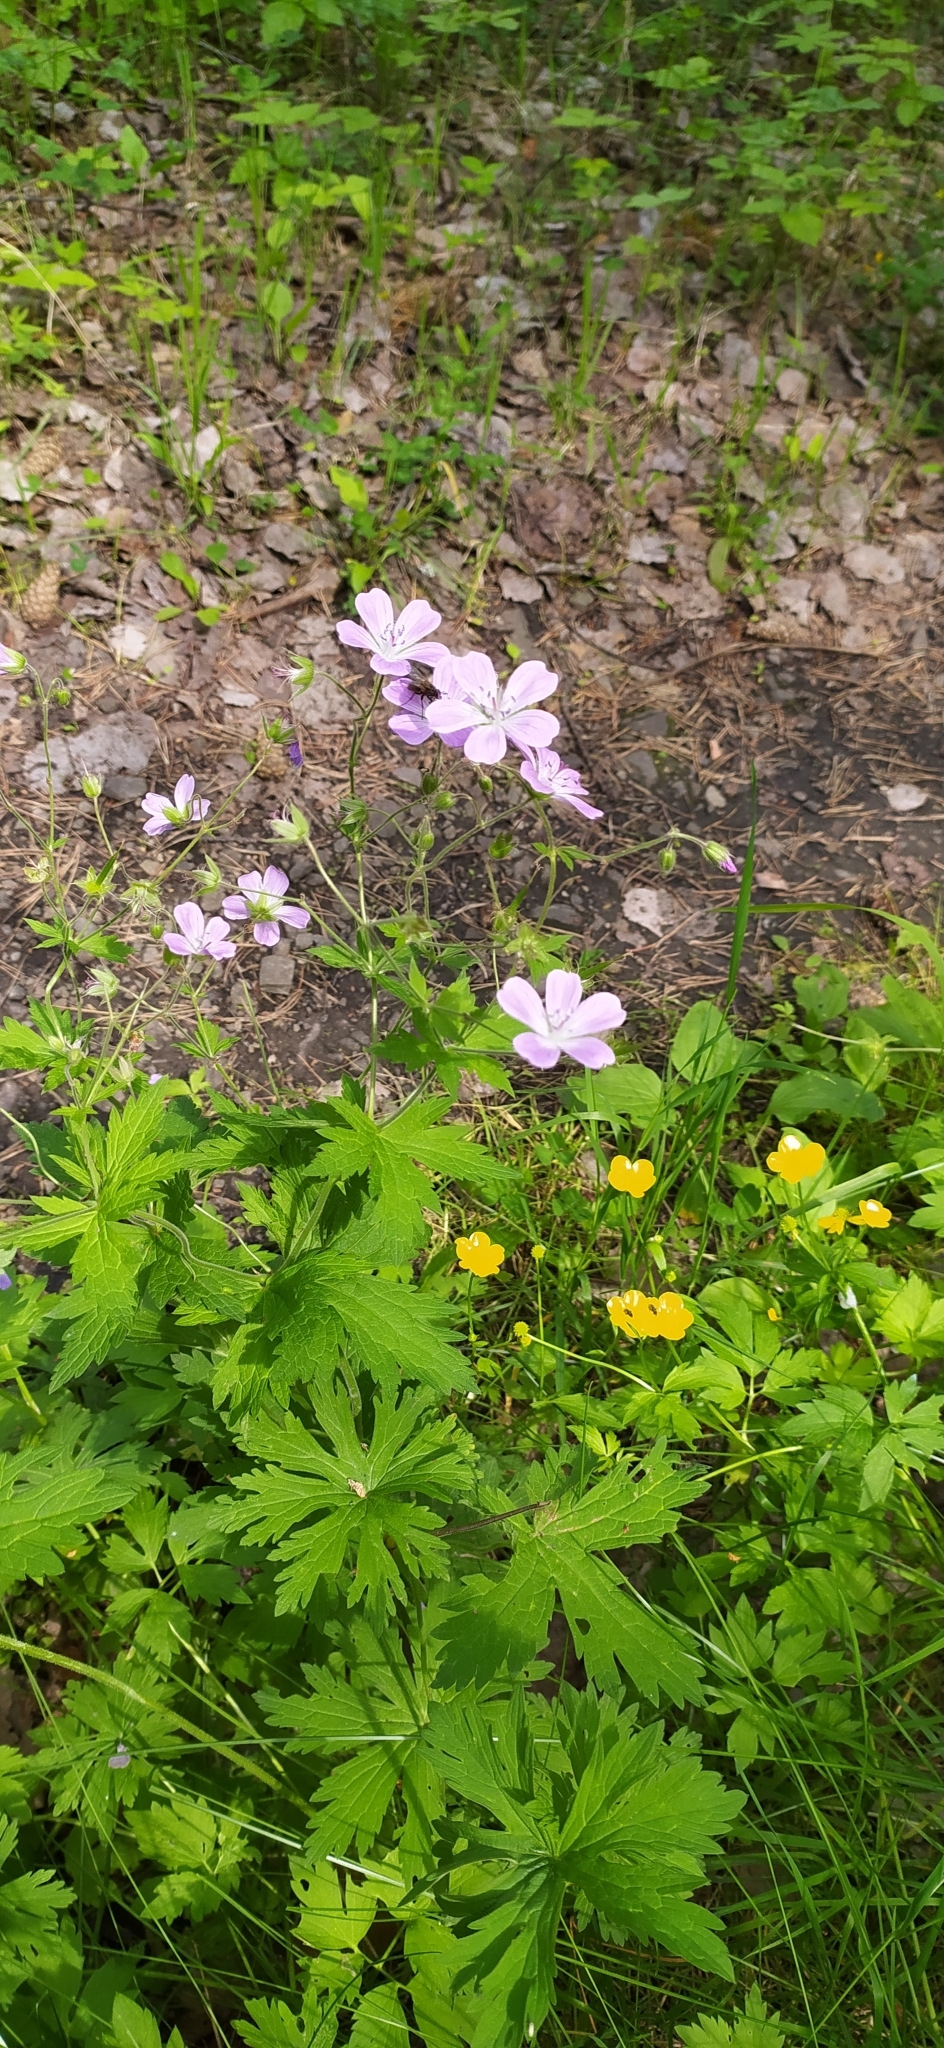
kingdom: Plantae
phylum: Tracheophyta
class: Magnoliopsida
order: Geraniales
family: Geraniaceae
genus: Geranium
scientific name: Geranium sylvaticum
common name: Wood crane's-bill
